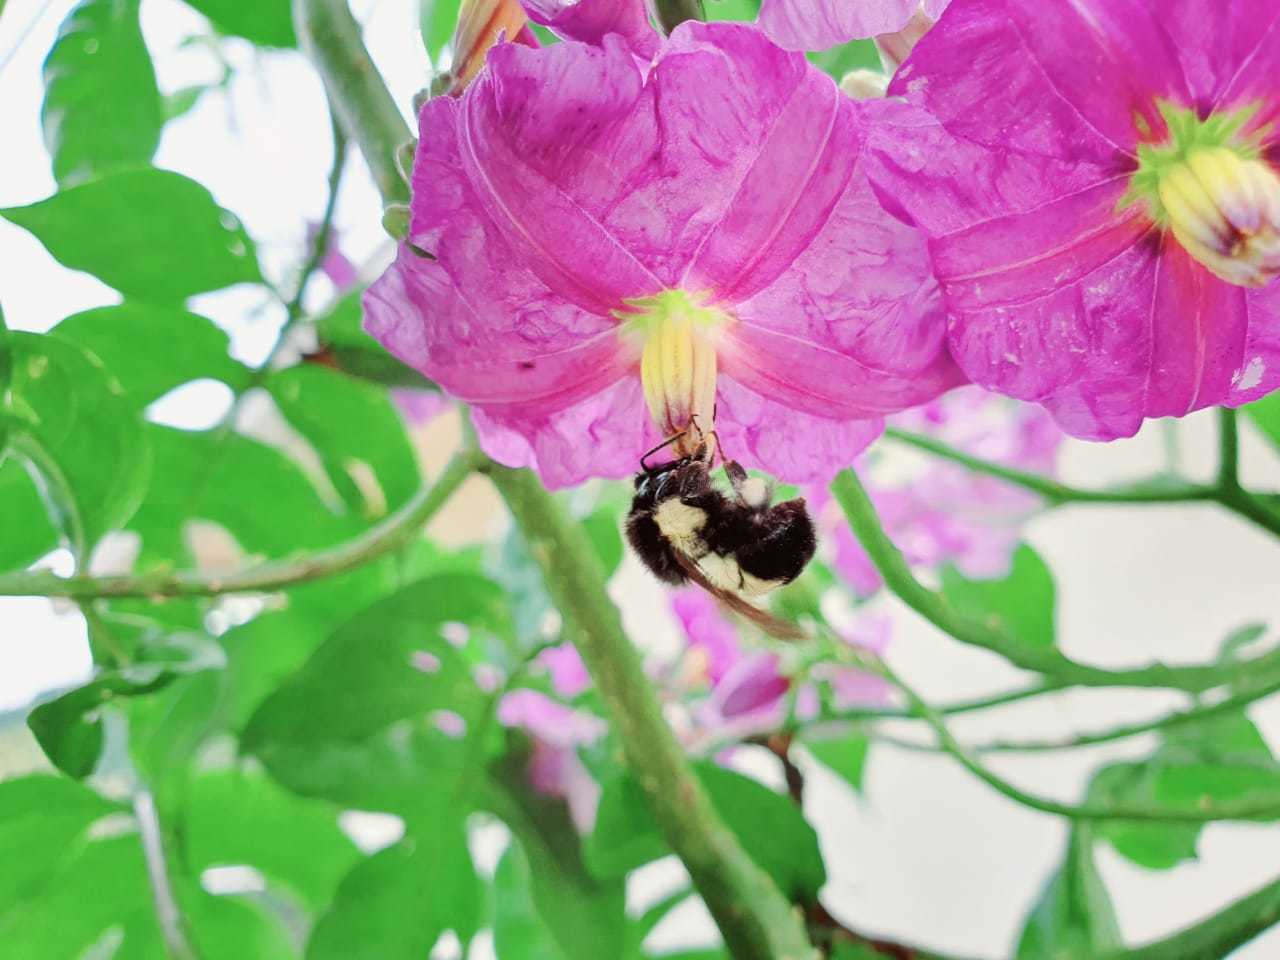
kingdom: Animalia
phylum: Arthropoda
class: Insecta
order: Hymenoptera
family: Apidae
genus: Bombus
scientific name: Bombus ephippiatus
